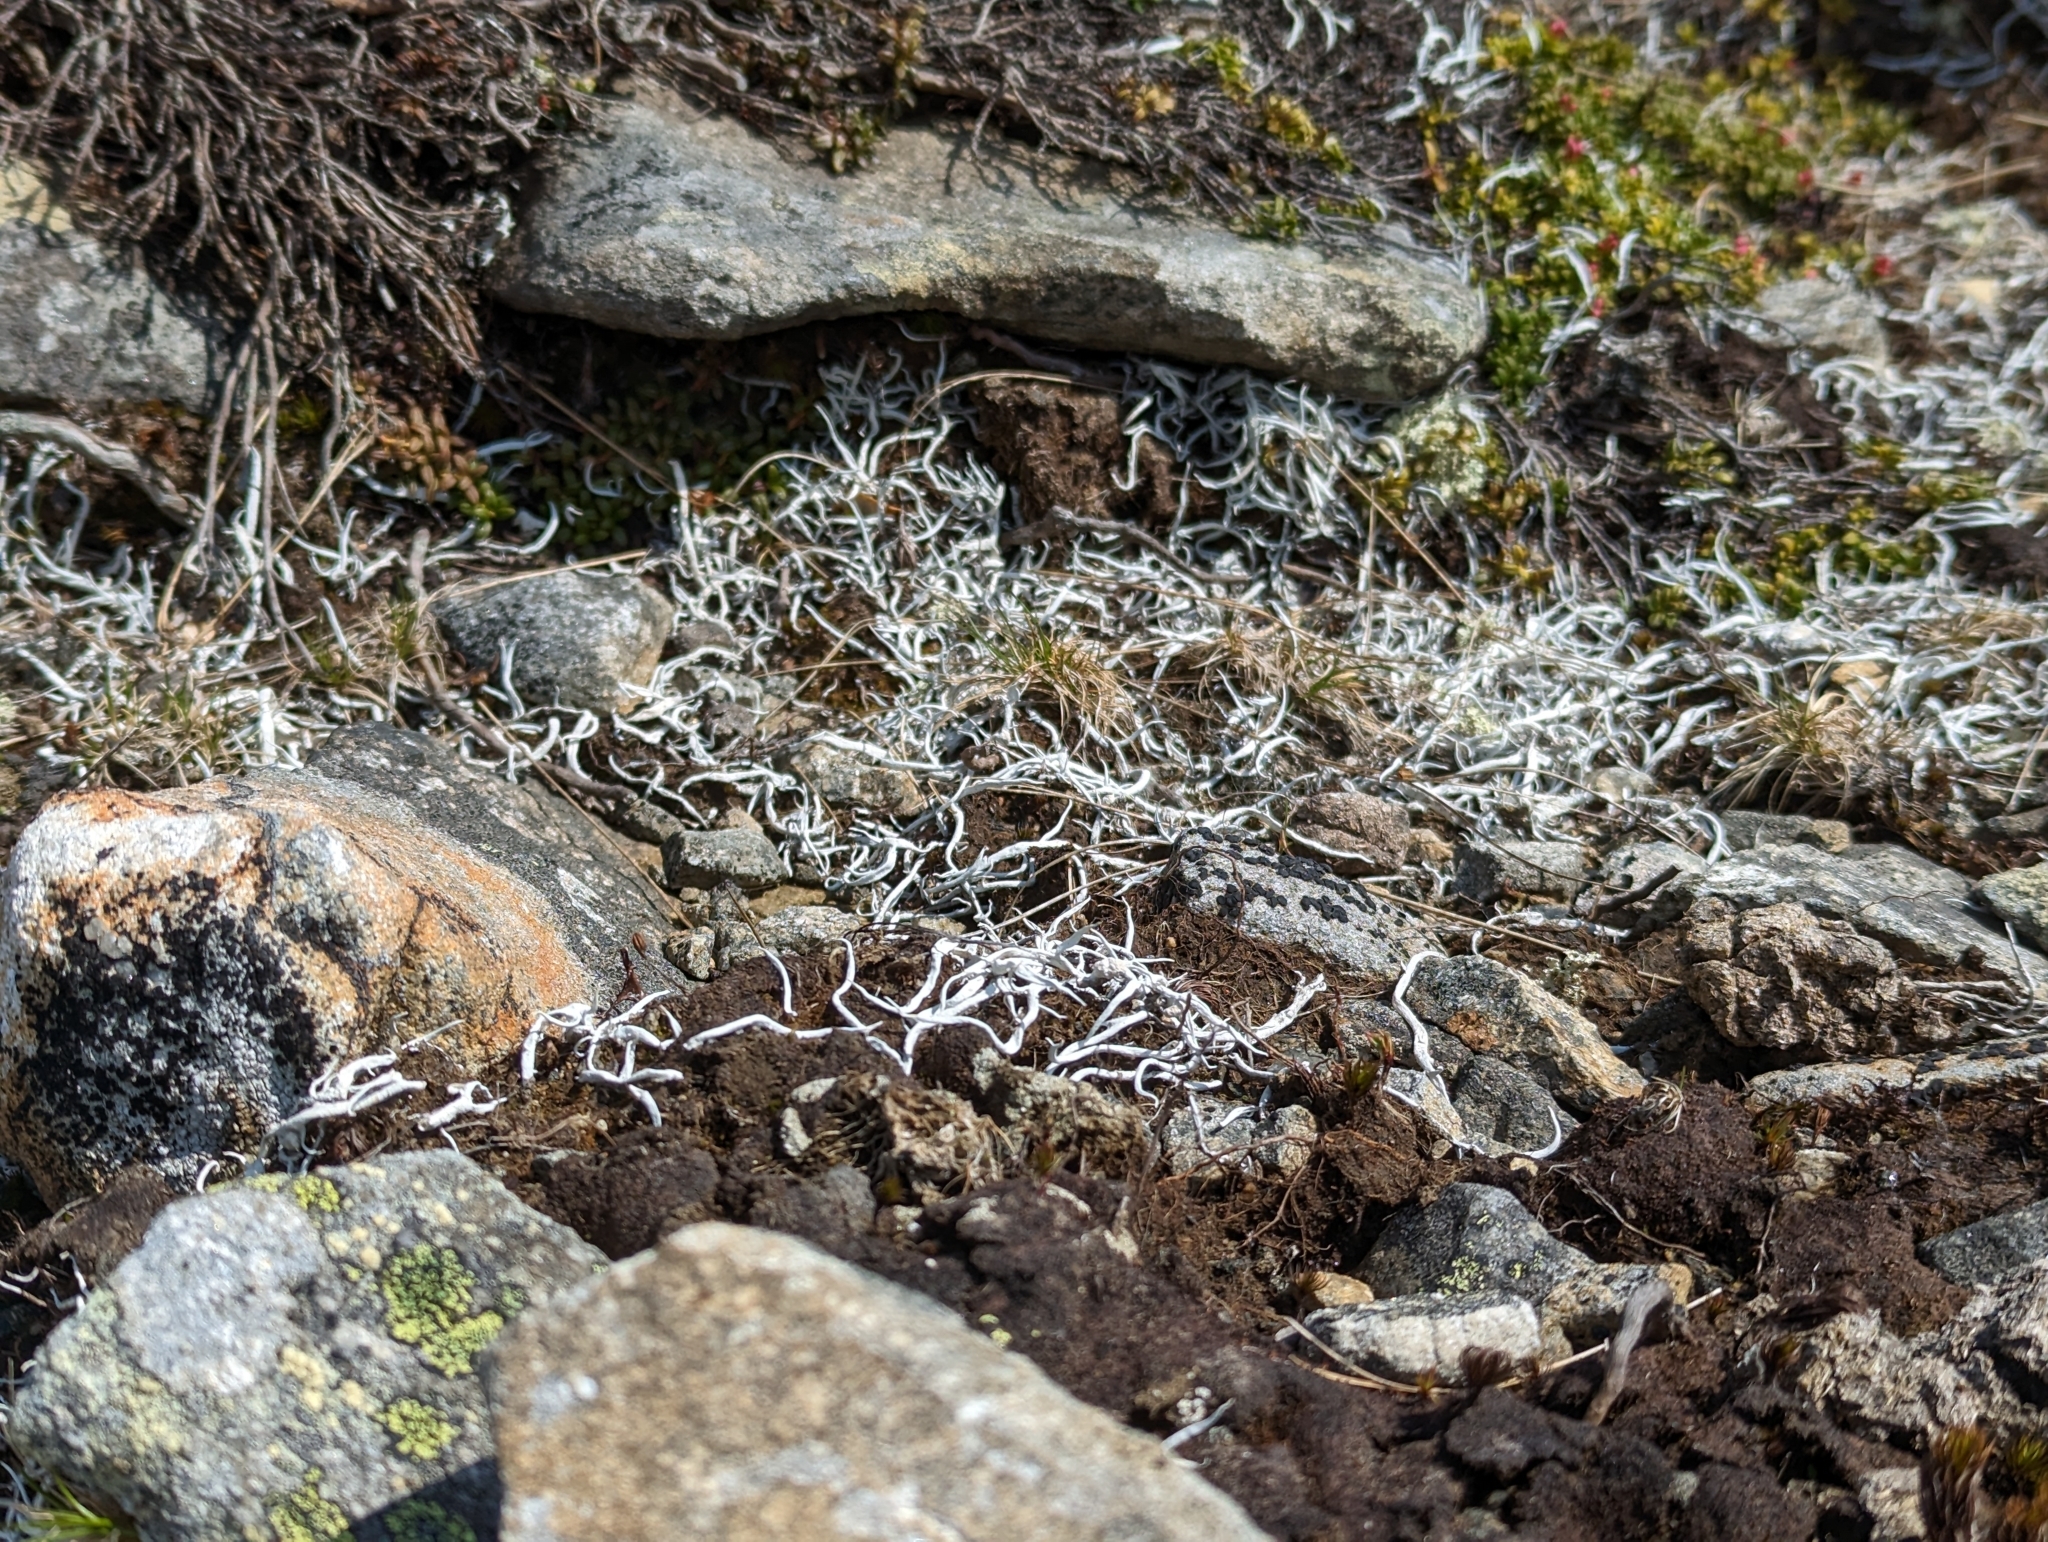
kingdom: Fungi
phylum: Ascomycota
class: Lecanoromycetes
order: Pertusariales
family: Icmadophilaceae
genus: Thamnolia
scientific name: Thamnolia vermicularis
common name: Whiteworm lichen
